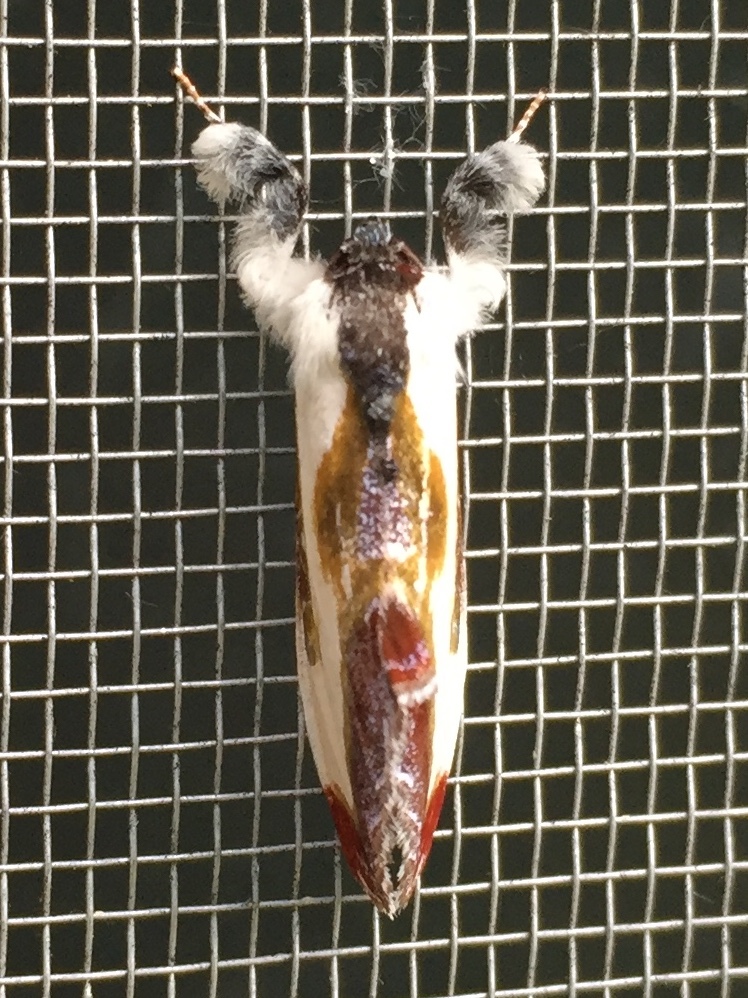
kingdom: Animalia
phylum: Arthropoda
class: Insecta
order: Lepidoptera
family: Noctuidae
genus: Eudryas
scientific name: Eudryas grata
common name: Beautiful wood-nymph
